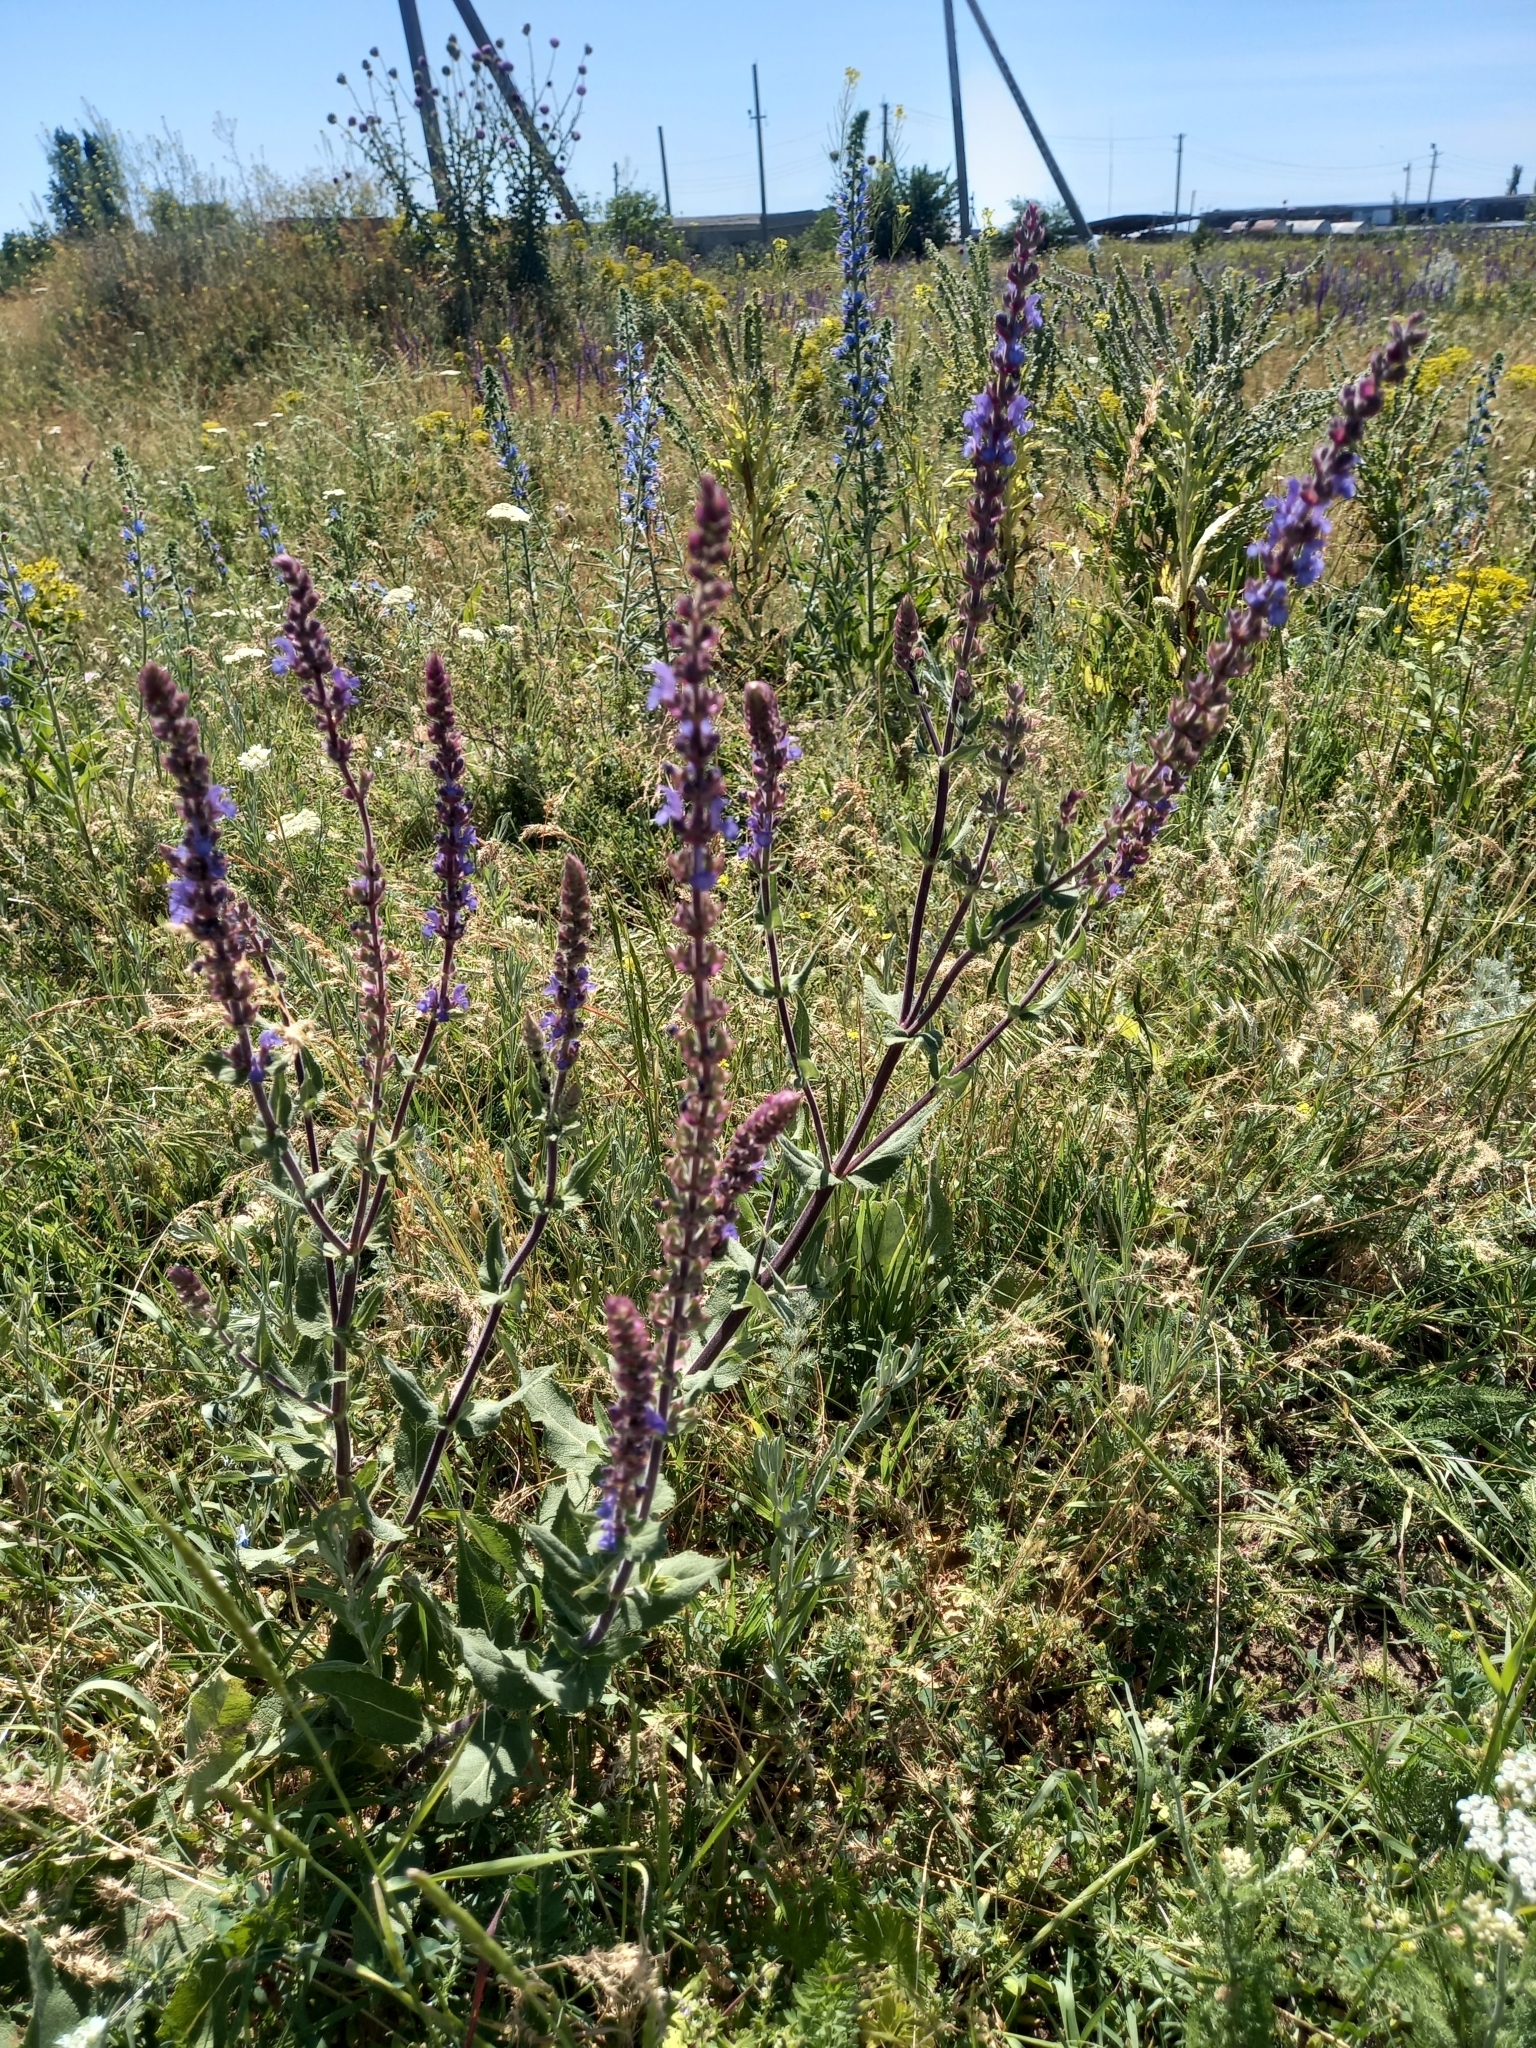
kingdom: Plantae
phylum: Tracheophyta
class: Magnoliopsida
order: Lamiales
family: Lamiaceae
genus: Salvia
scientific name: Salvia nemorosa
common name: Balkan clary
